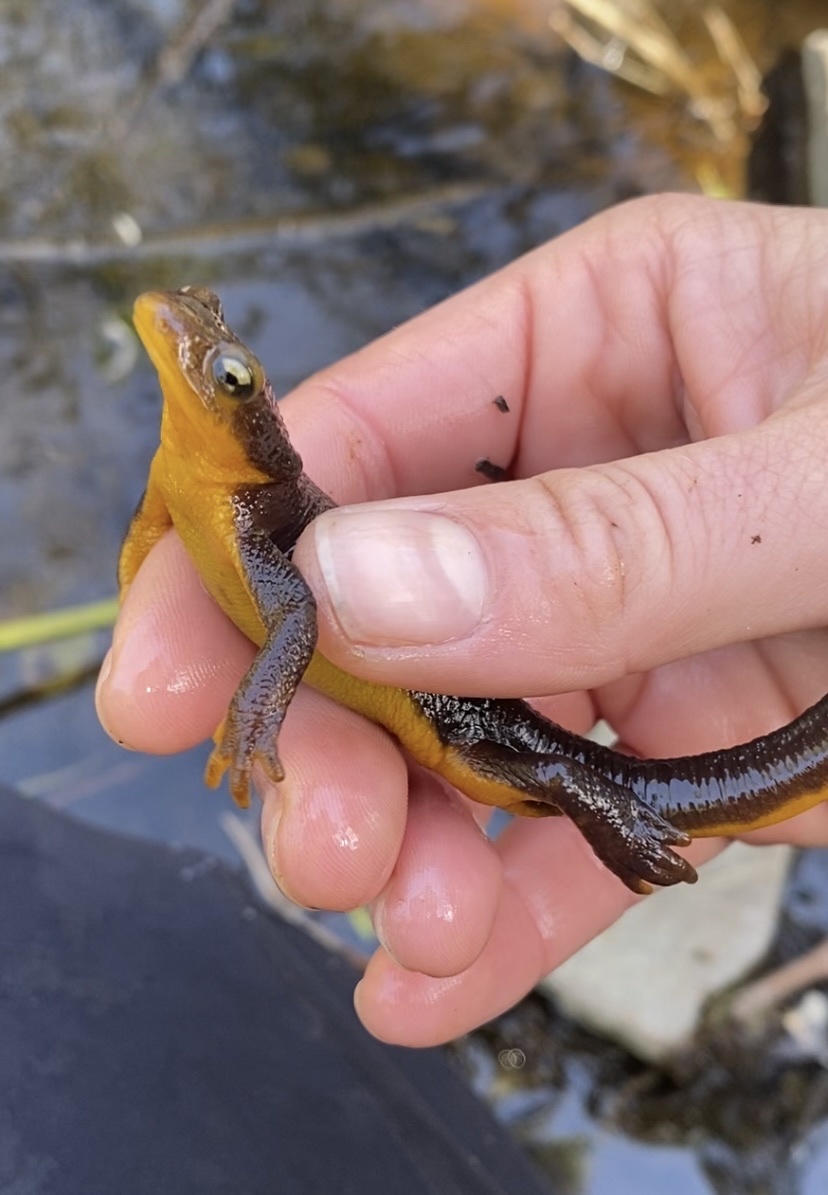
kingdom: Animalia
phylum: Chordata
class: Amphibia
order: Caudata
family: Salamandridae
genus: Taricha
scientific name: Taricha torosa
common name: California newt
